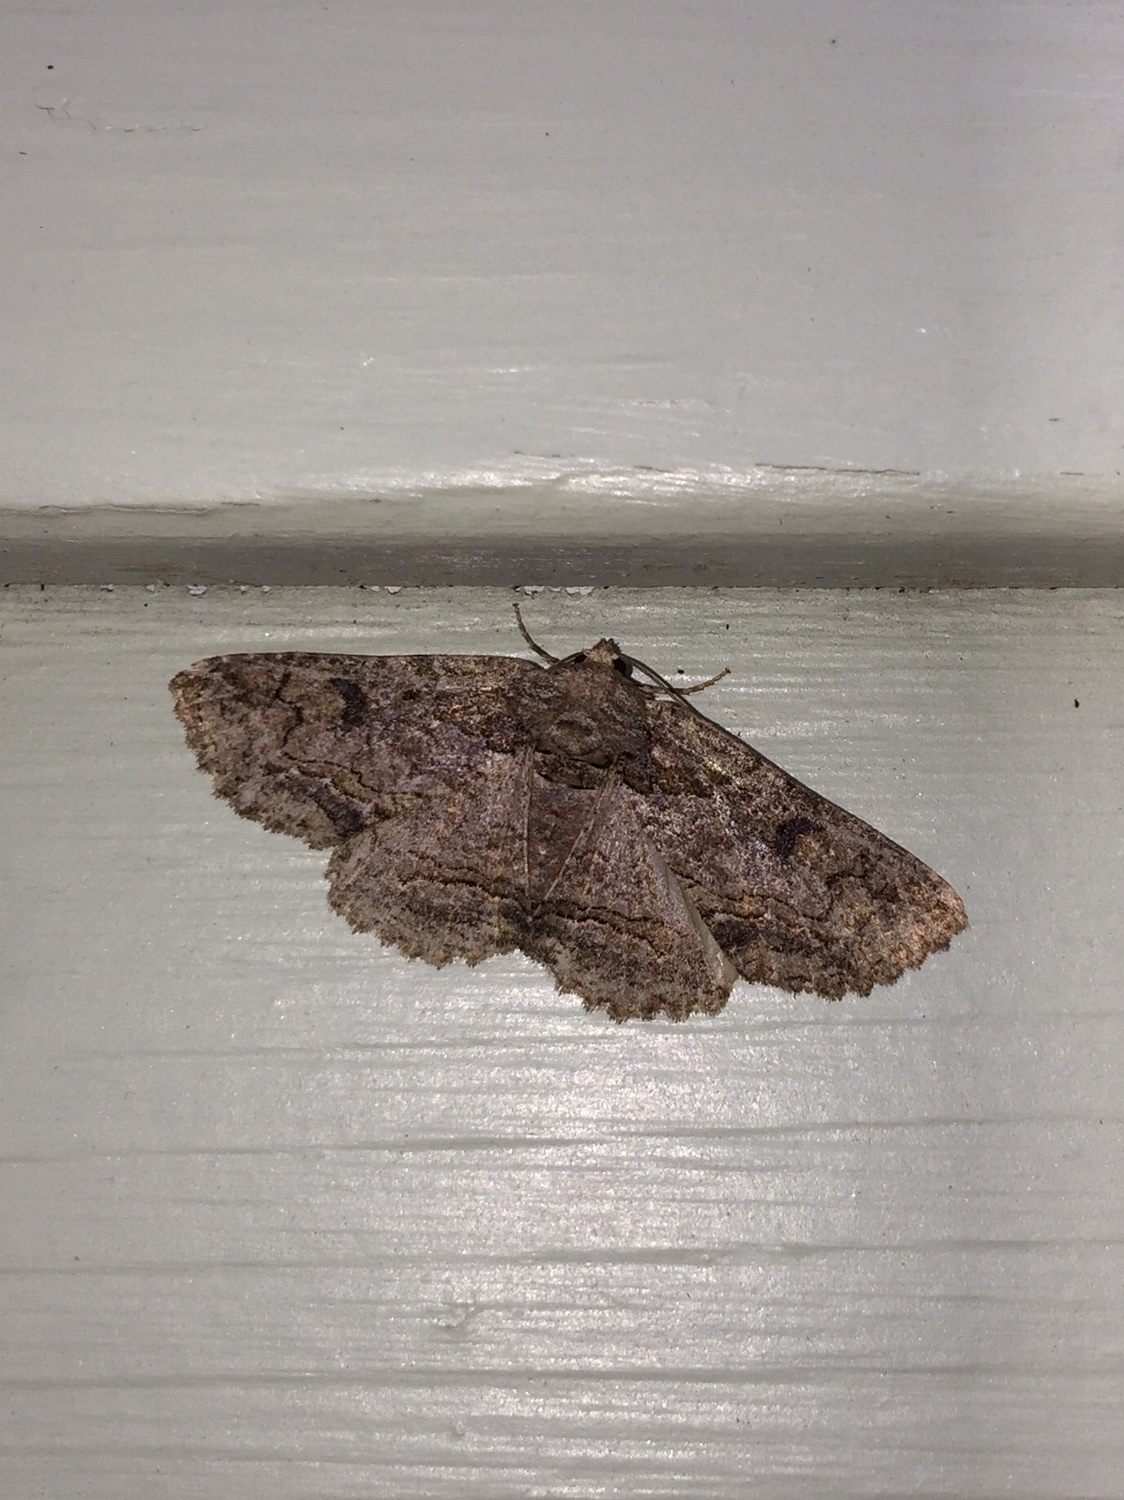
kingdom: Animalia
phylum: Arthropoda
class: Insecta
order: Lepidoptera
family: Erebidae
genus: Zale
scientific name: Zale galbanata
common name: Maple zale
